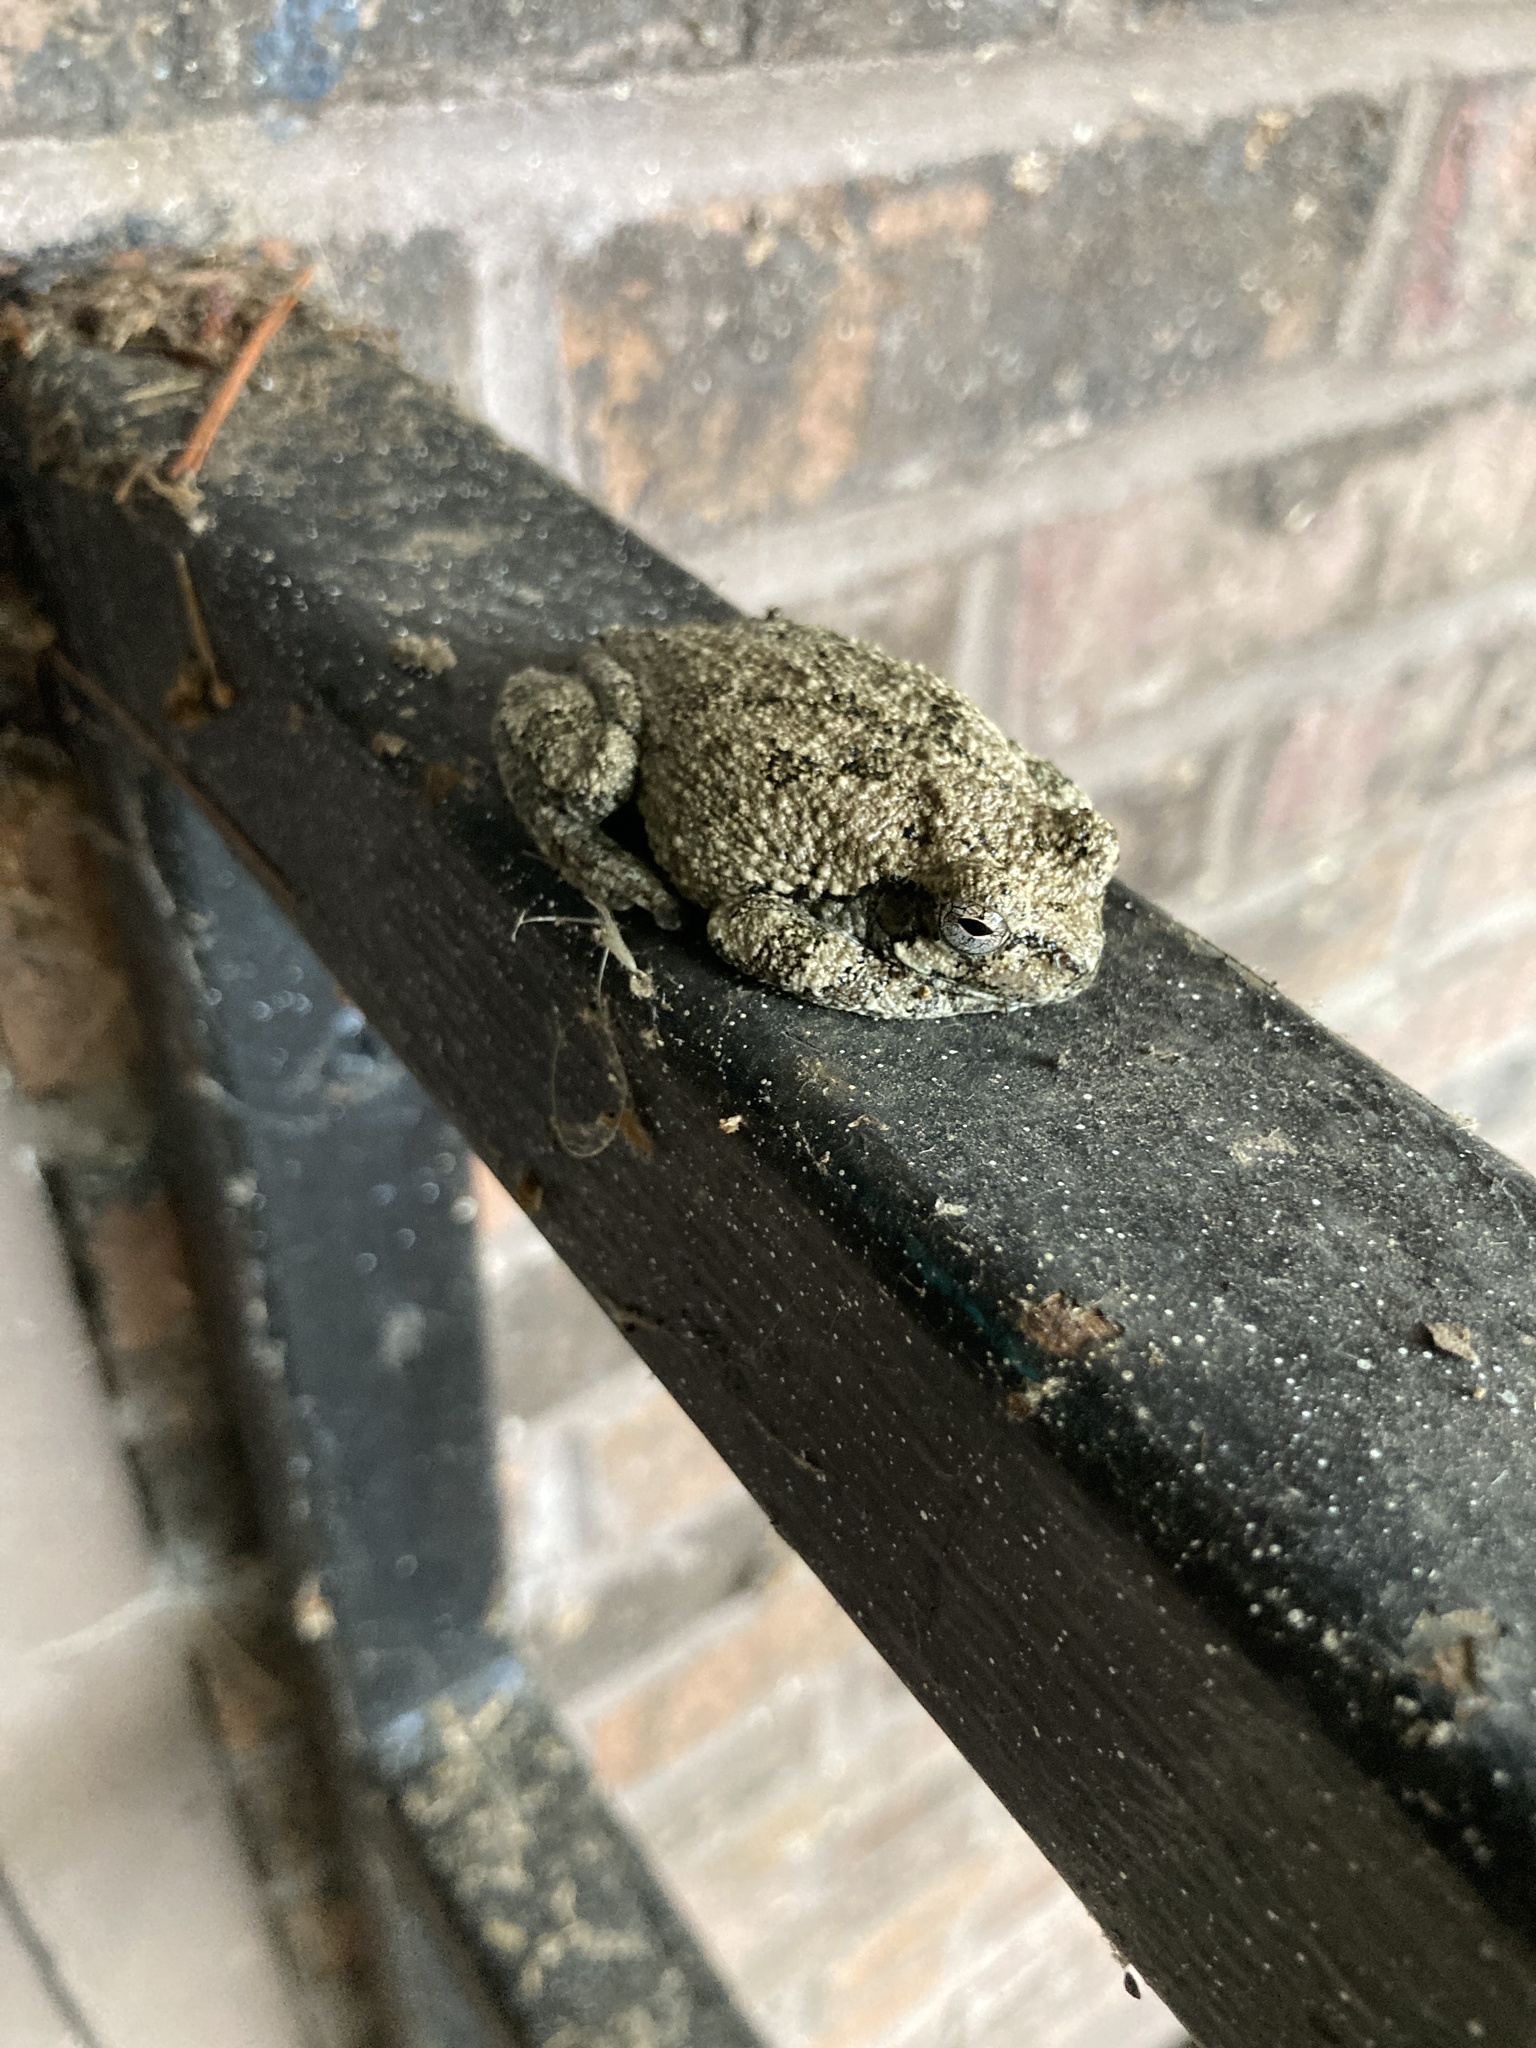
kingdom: Animalia
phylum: Chordata
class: Amphibia
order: Anura
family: Hylidae
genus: Hyla
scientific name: Hyla
